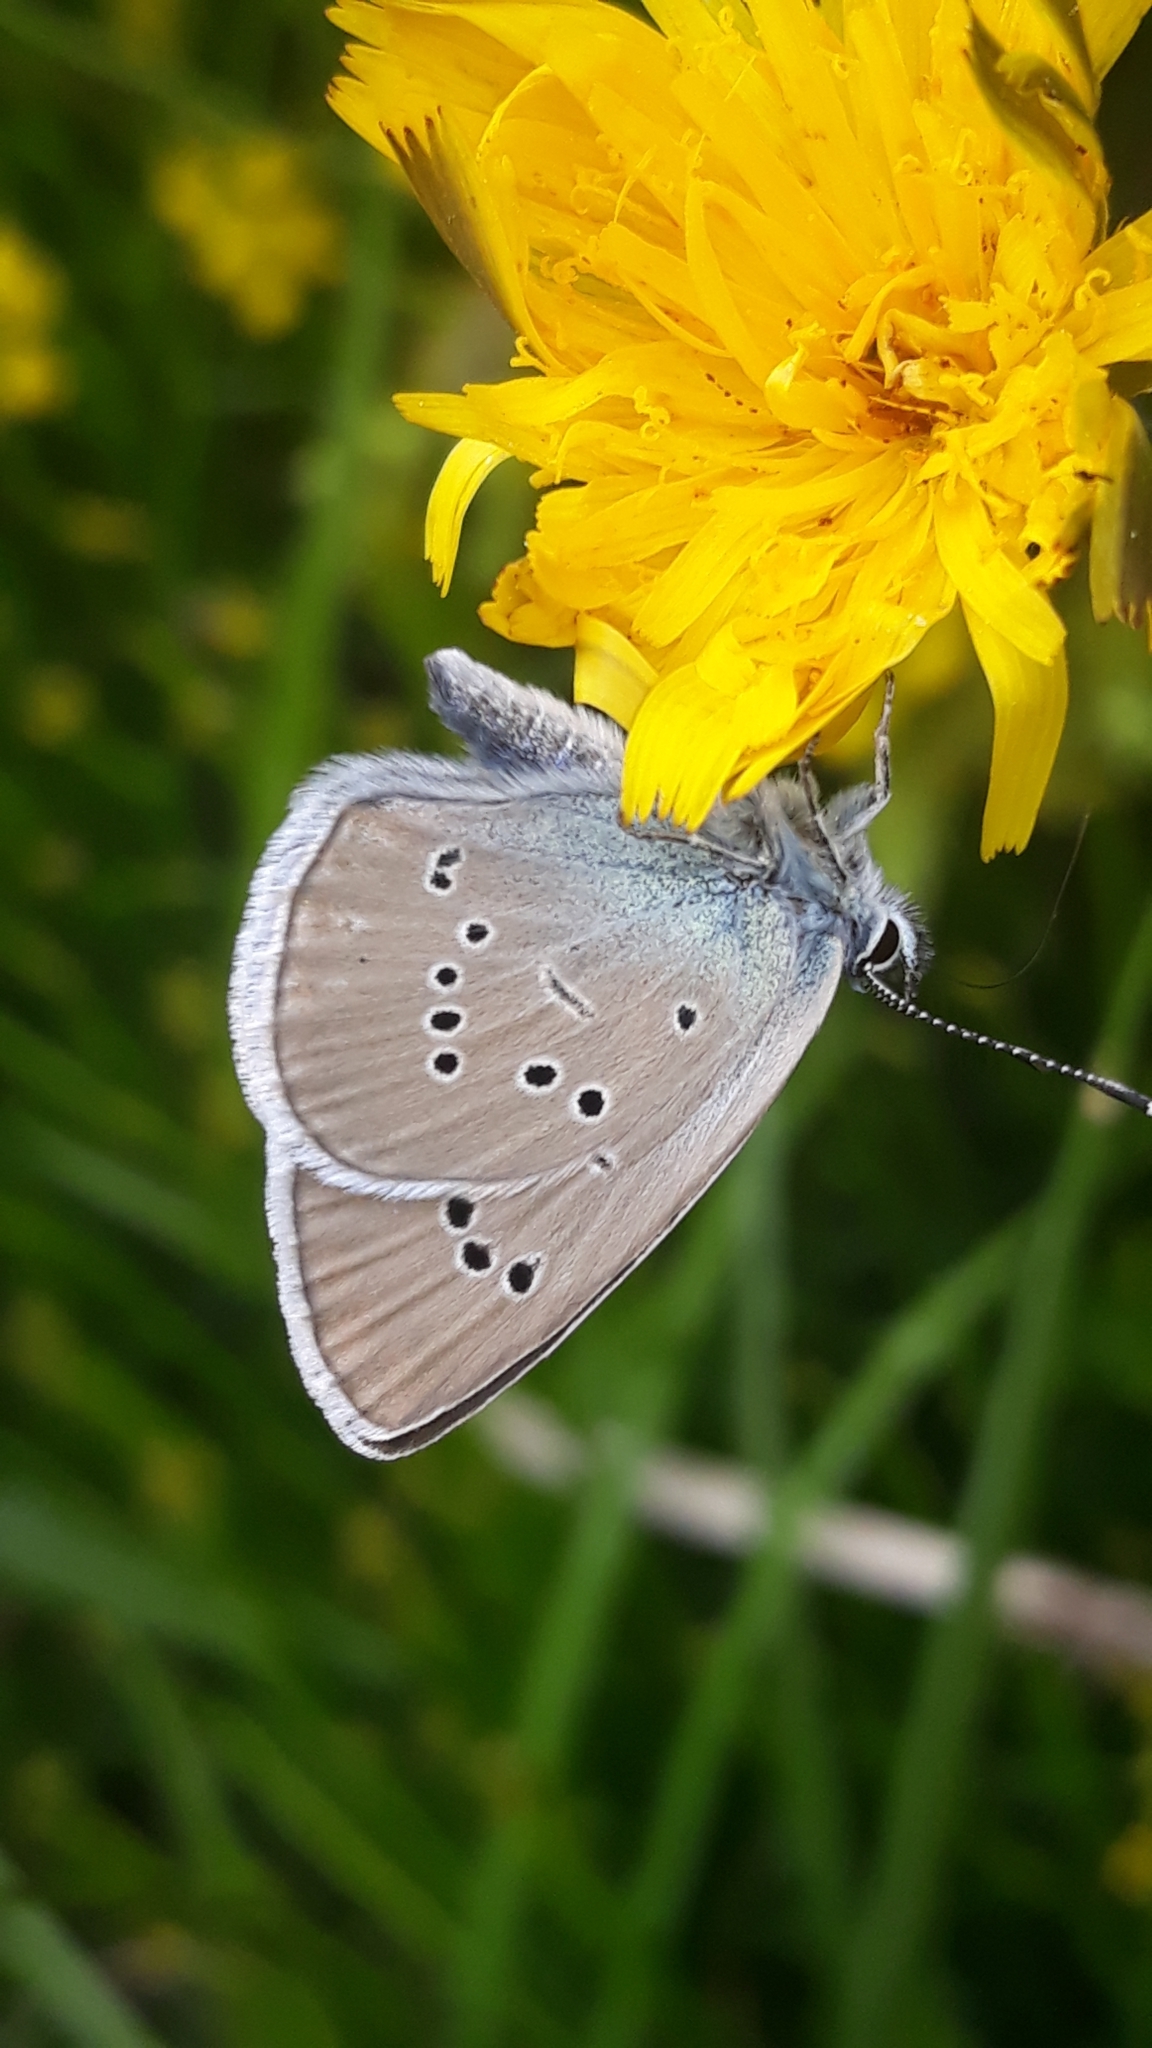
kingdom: Animalia
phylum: Arthropoda
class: Insecta
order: Lepidoptera
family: Lycaenidae
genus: Cyaniris
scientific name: Cyaniris semiargus
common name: Mazarine blue
